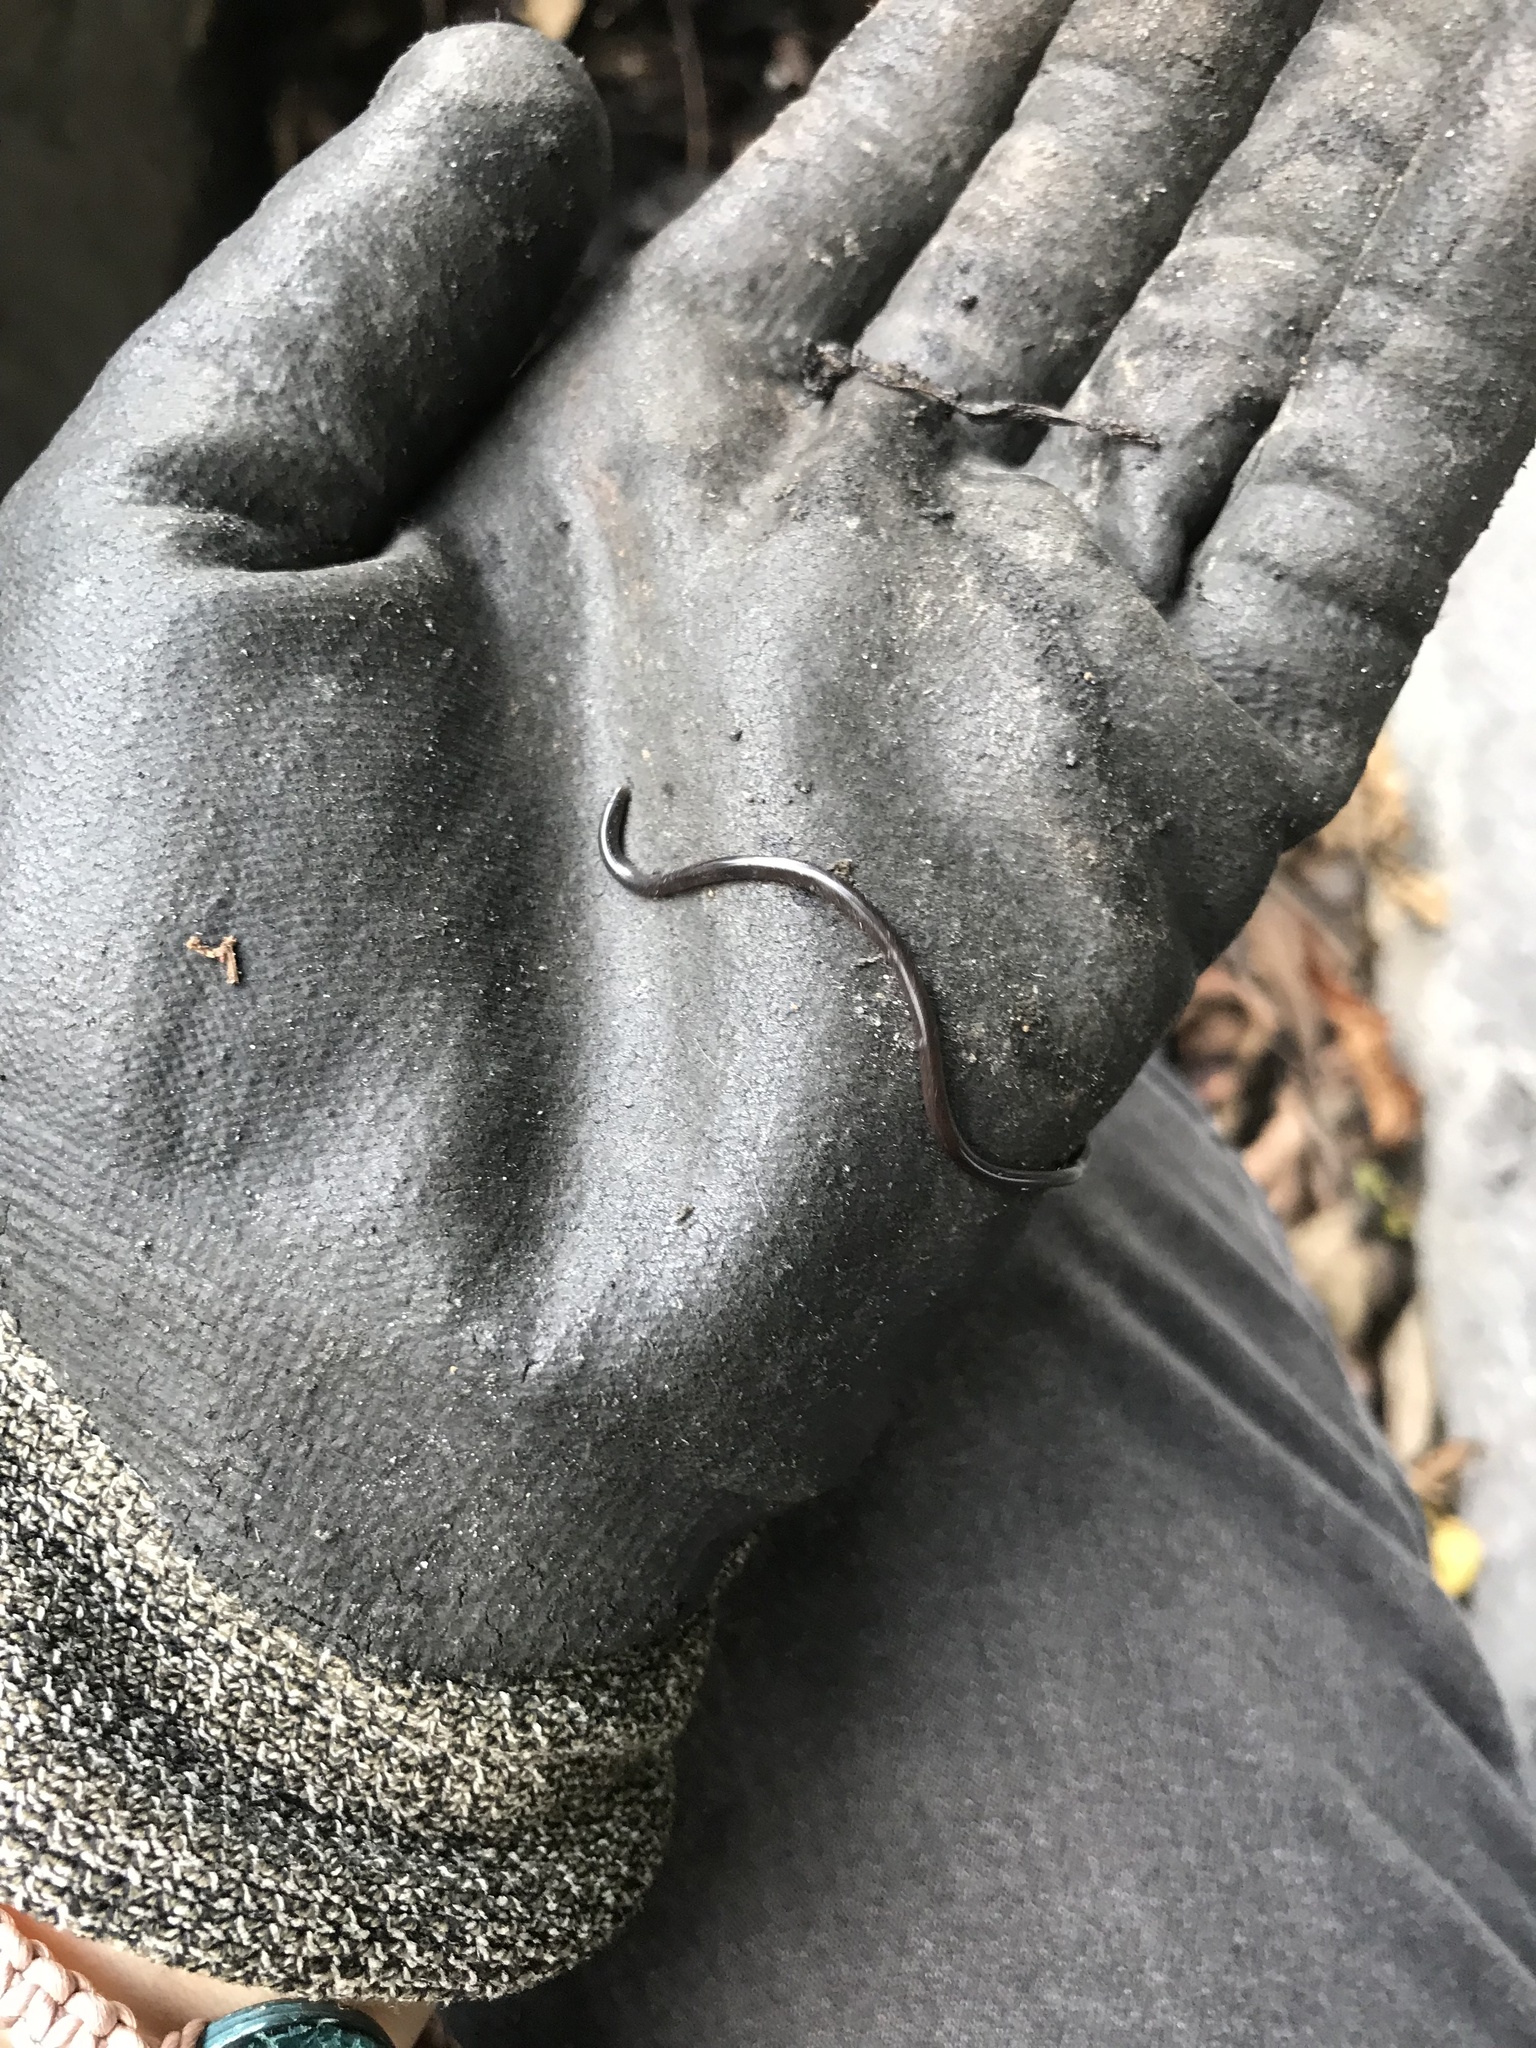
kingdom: Animalia
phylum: Chordata
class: Squamata
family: Typhlopidae
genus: Indotyphlops
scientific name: Indotyphlops braminus
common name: Brahminy blindsnake
